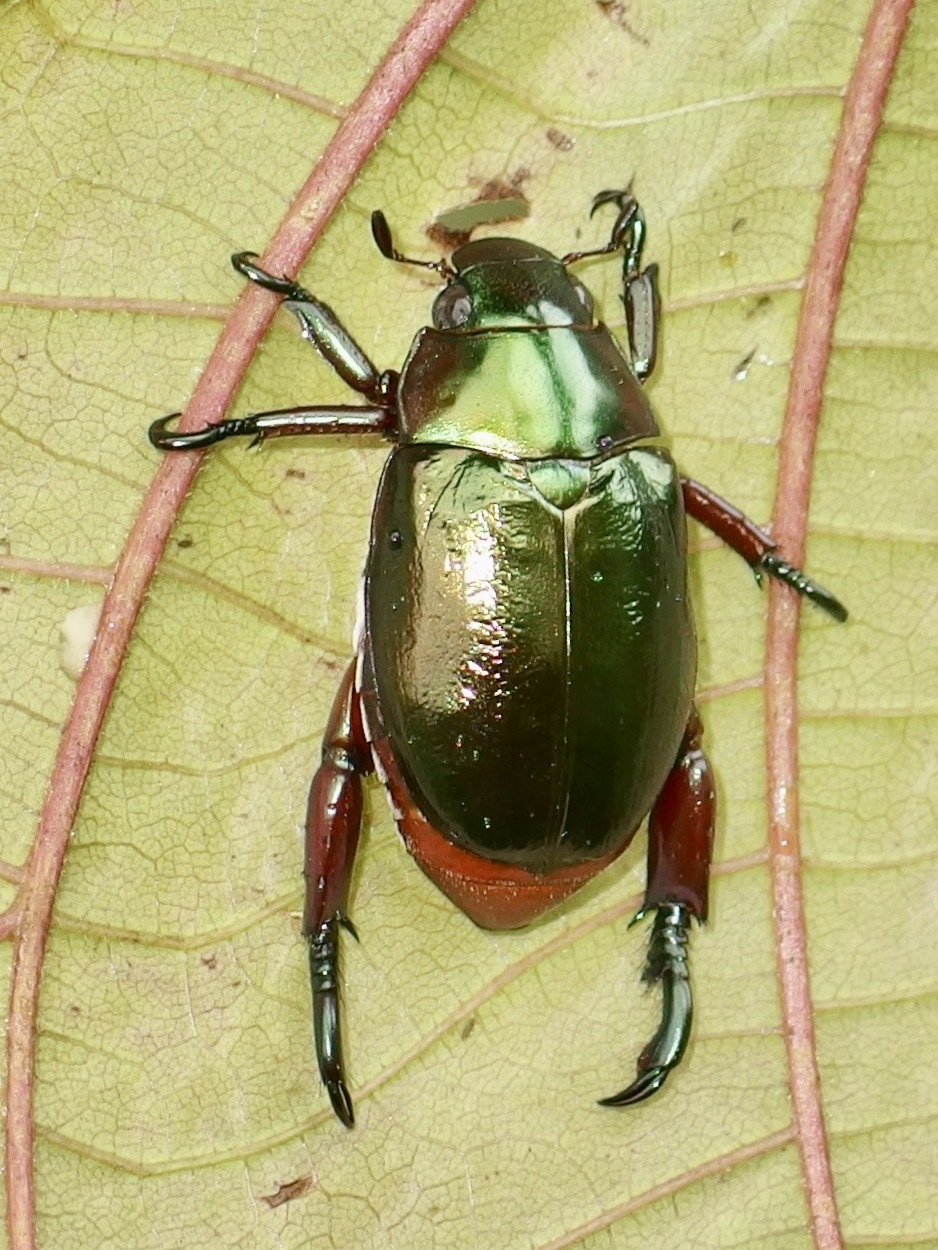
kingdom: Animalia
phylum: Arthropoda
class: Insecta
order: Coleoptera
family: Scarabaeidae
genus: Repsimus
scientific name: Repsimus aeneus
